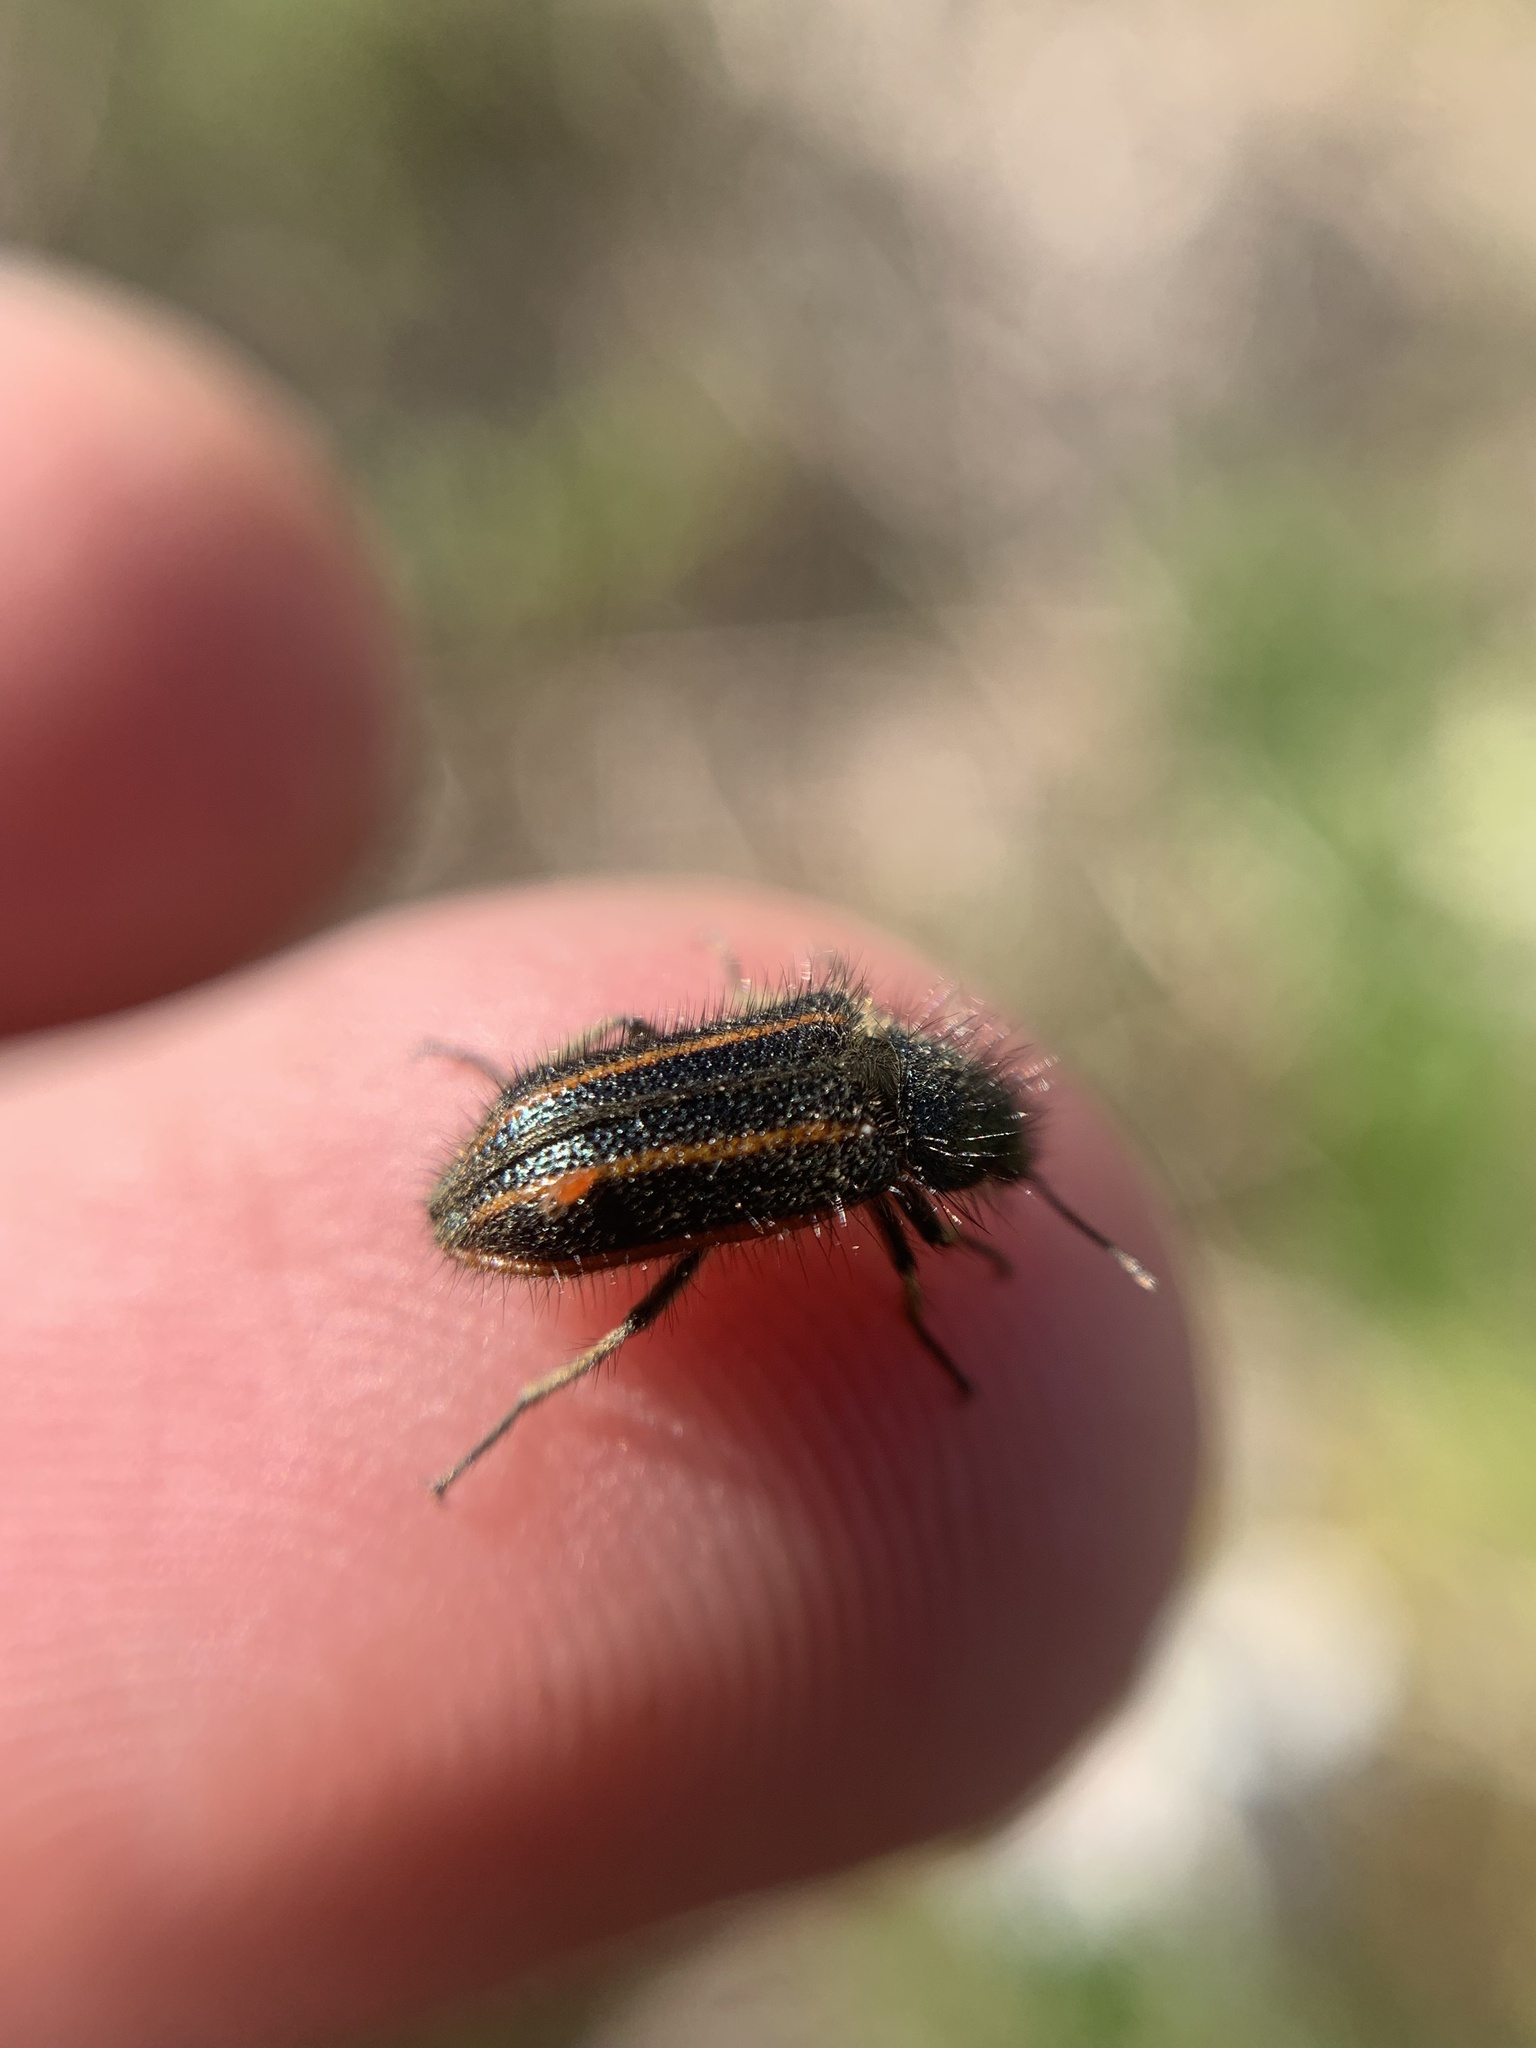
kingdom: Animalia
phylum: Arthropoda
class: Insecta
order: Coleoptera
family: Melyridae
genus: Astylus
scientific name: Astylus
